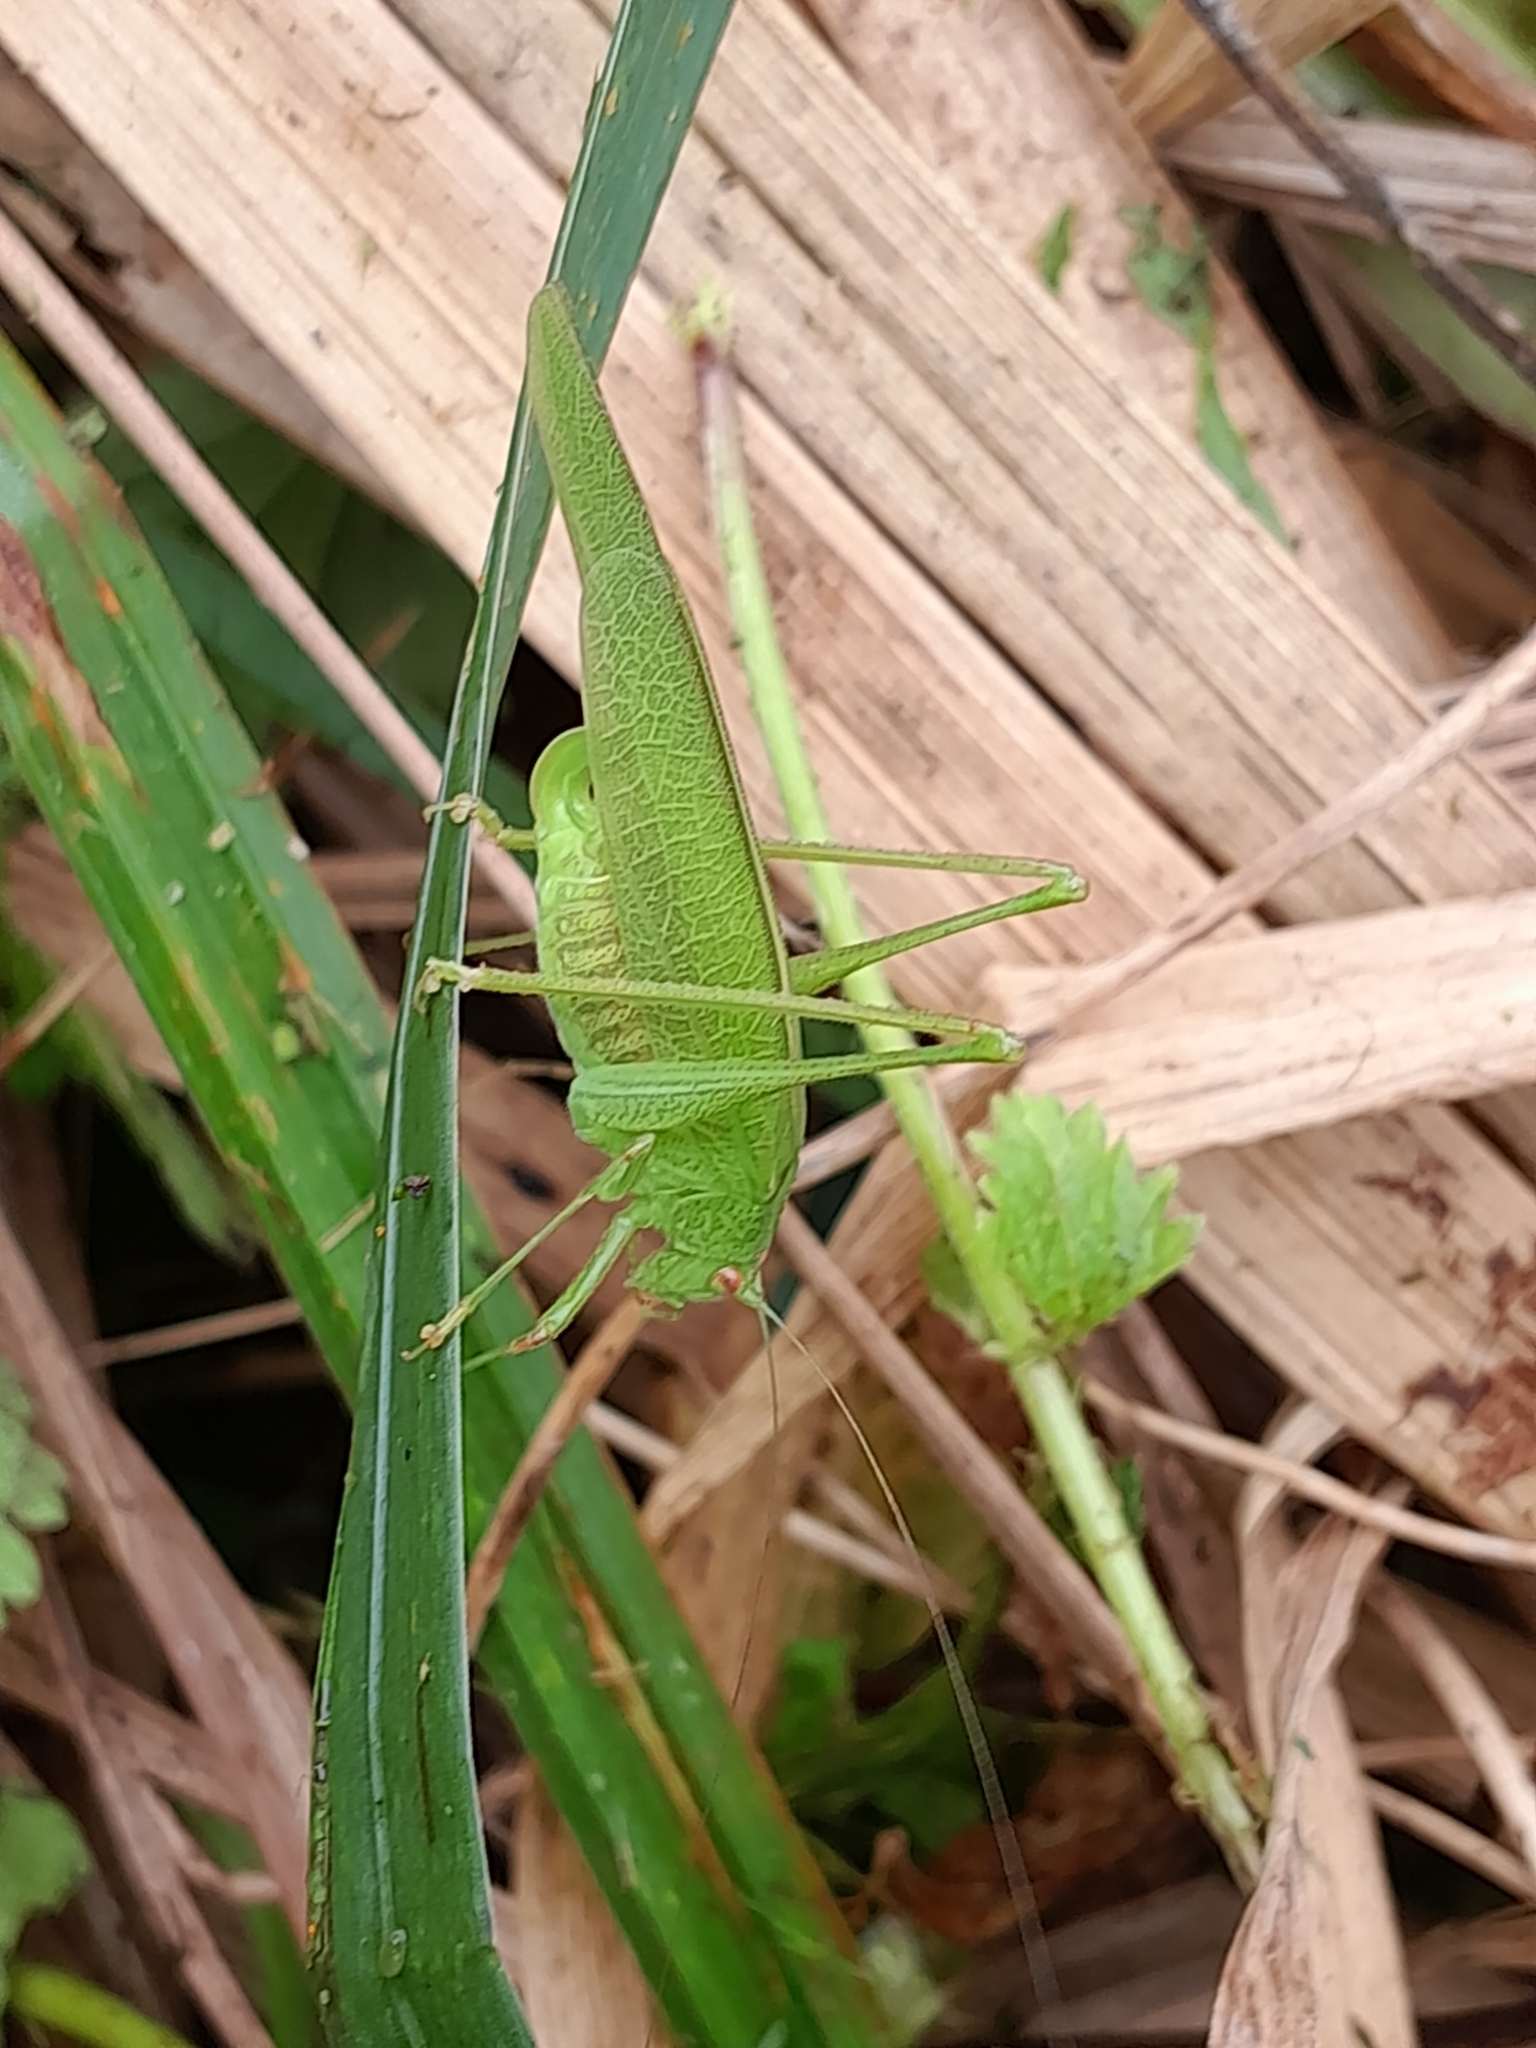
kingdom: Animalia
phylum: Arthropoda
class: Insecta
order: Orthoptera
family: Tettigoniidae
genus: Phaneroptera
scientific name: Phaneroptera nana
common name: Southern sickle bush-cricket
